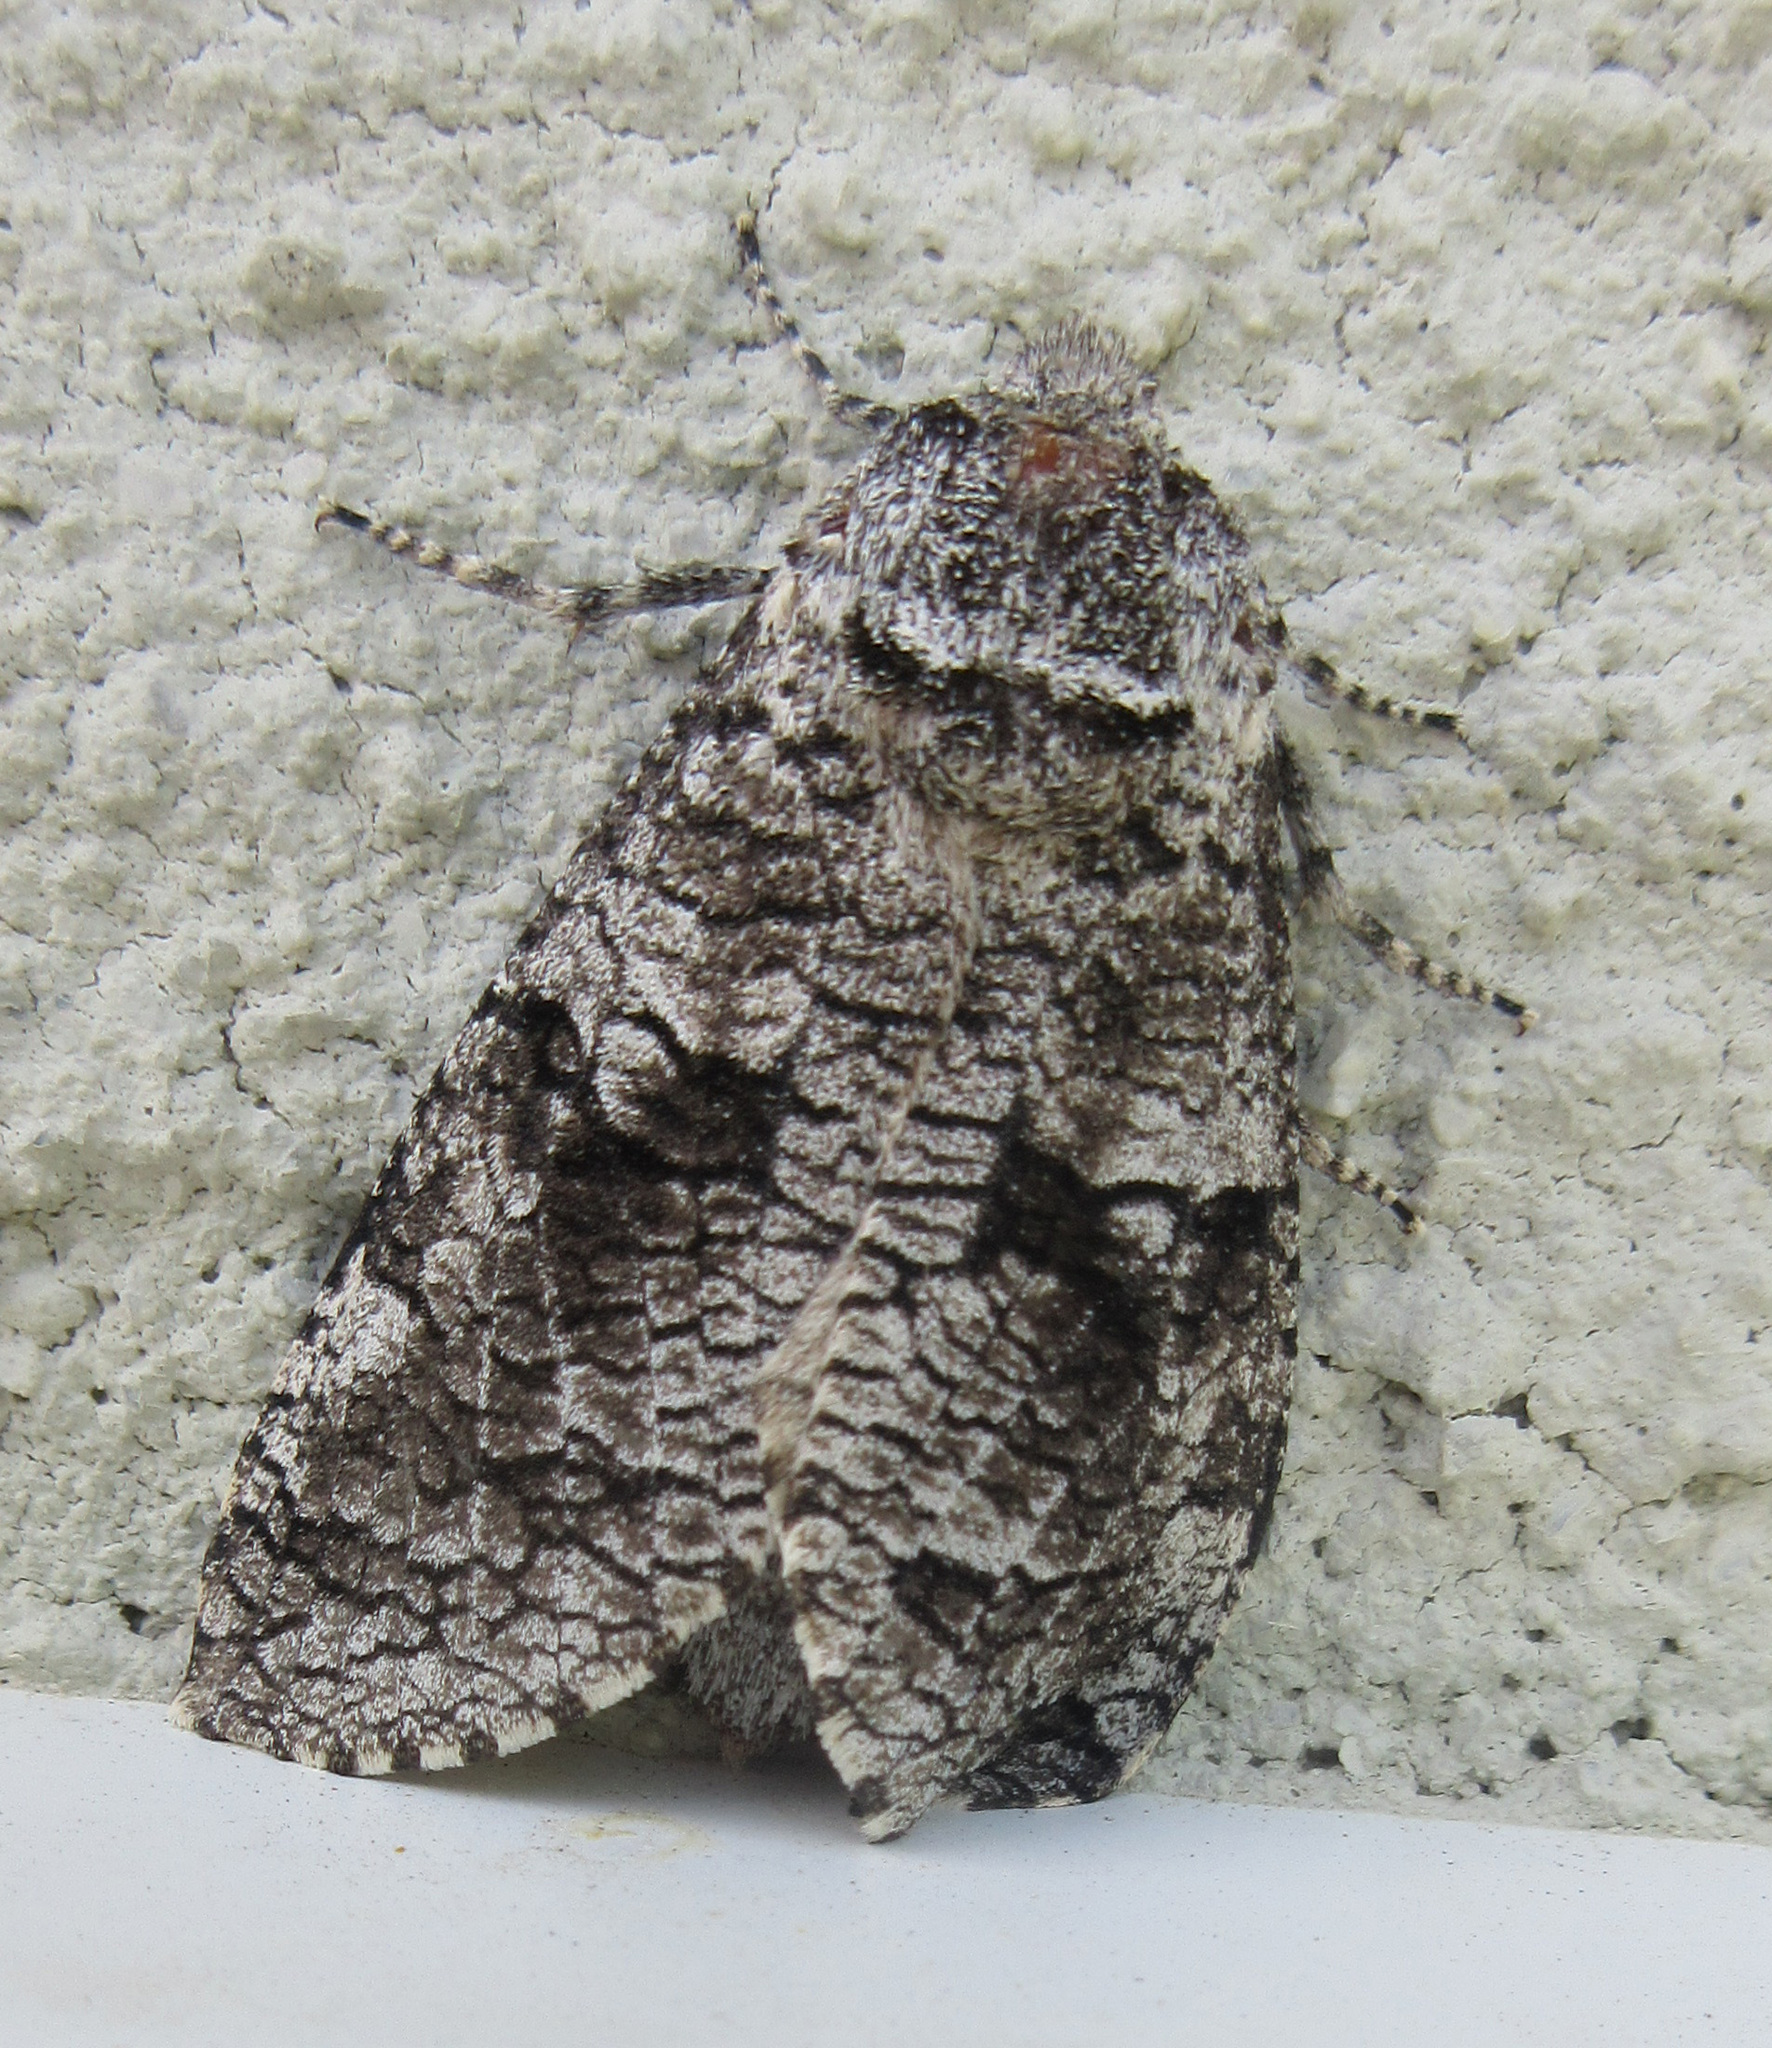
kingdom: Animalia
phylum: Arthropoda
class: Insecta
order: Lepidoptera
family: Cossidae
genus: Acossus
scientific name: Acossus populi
